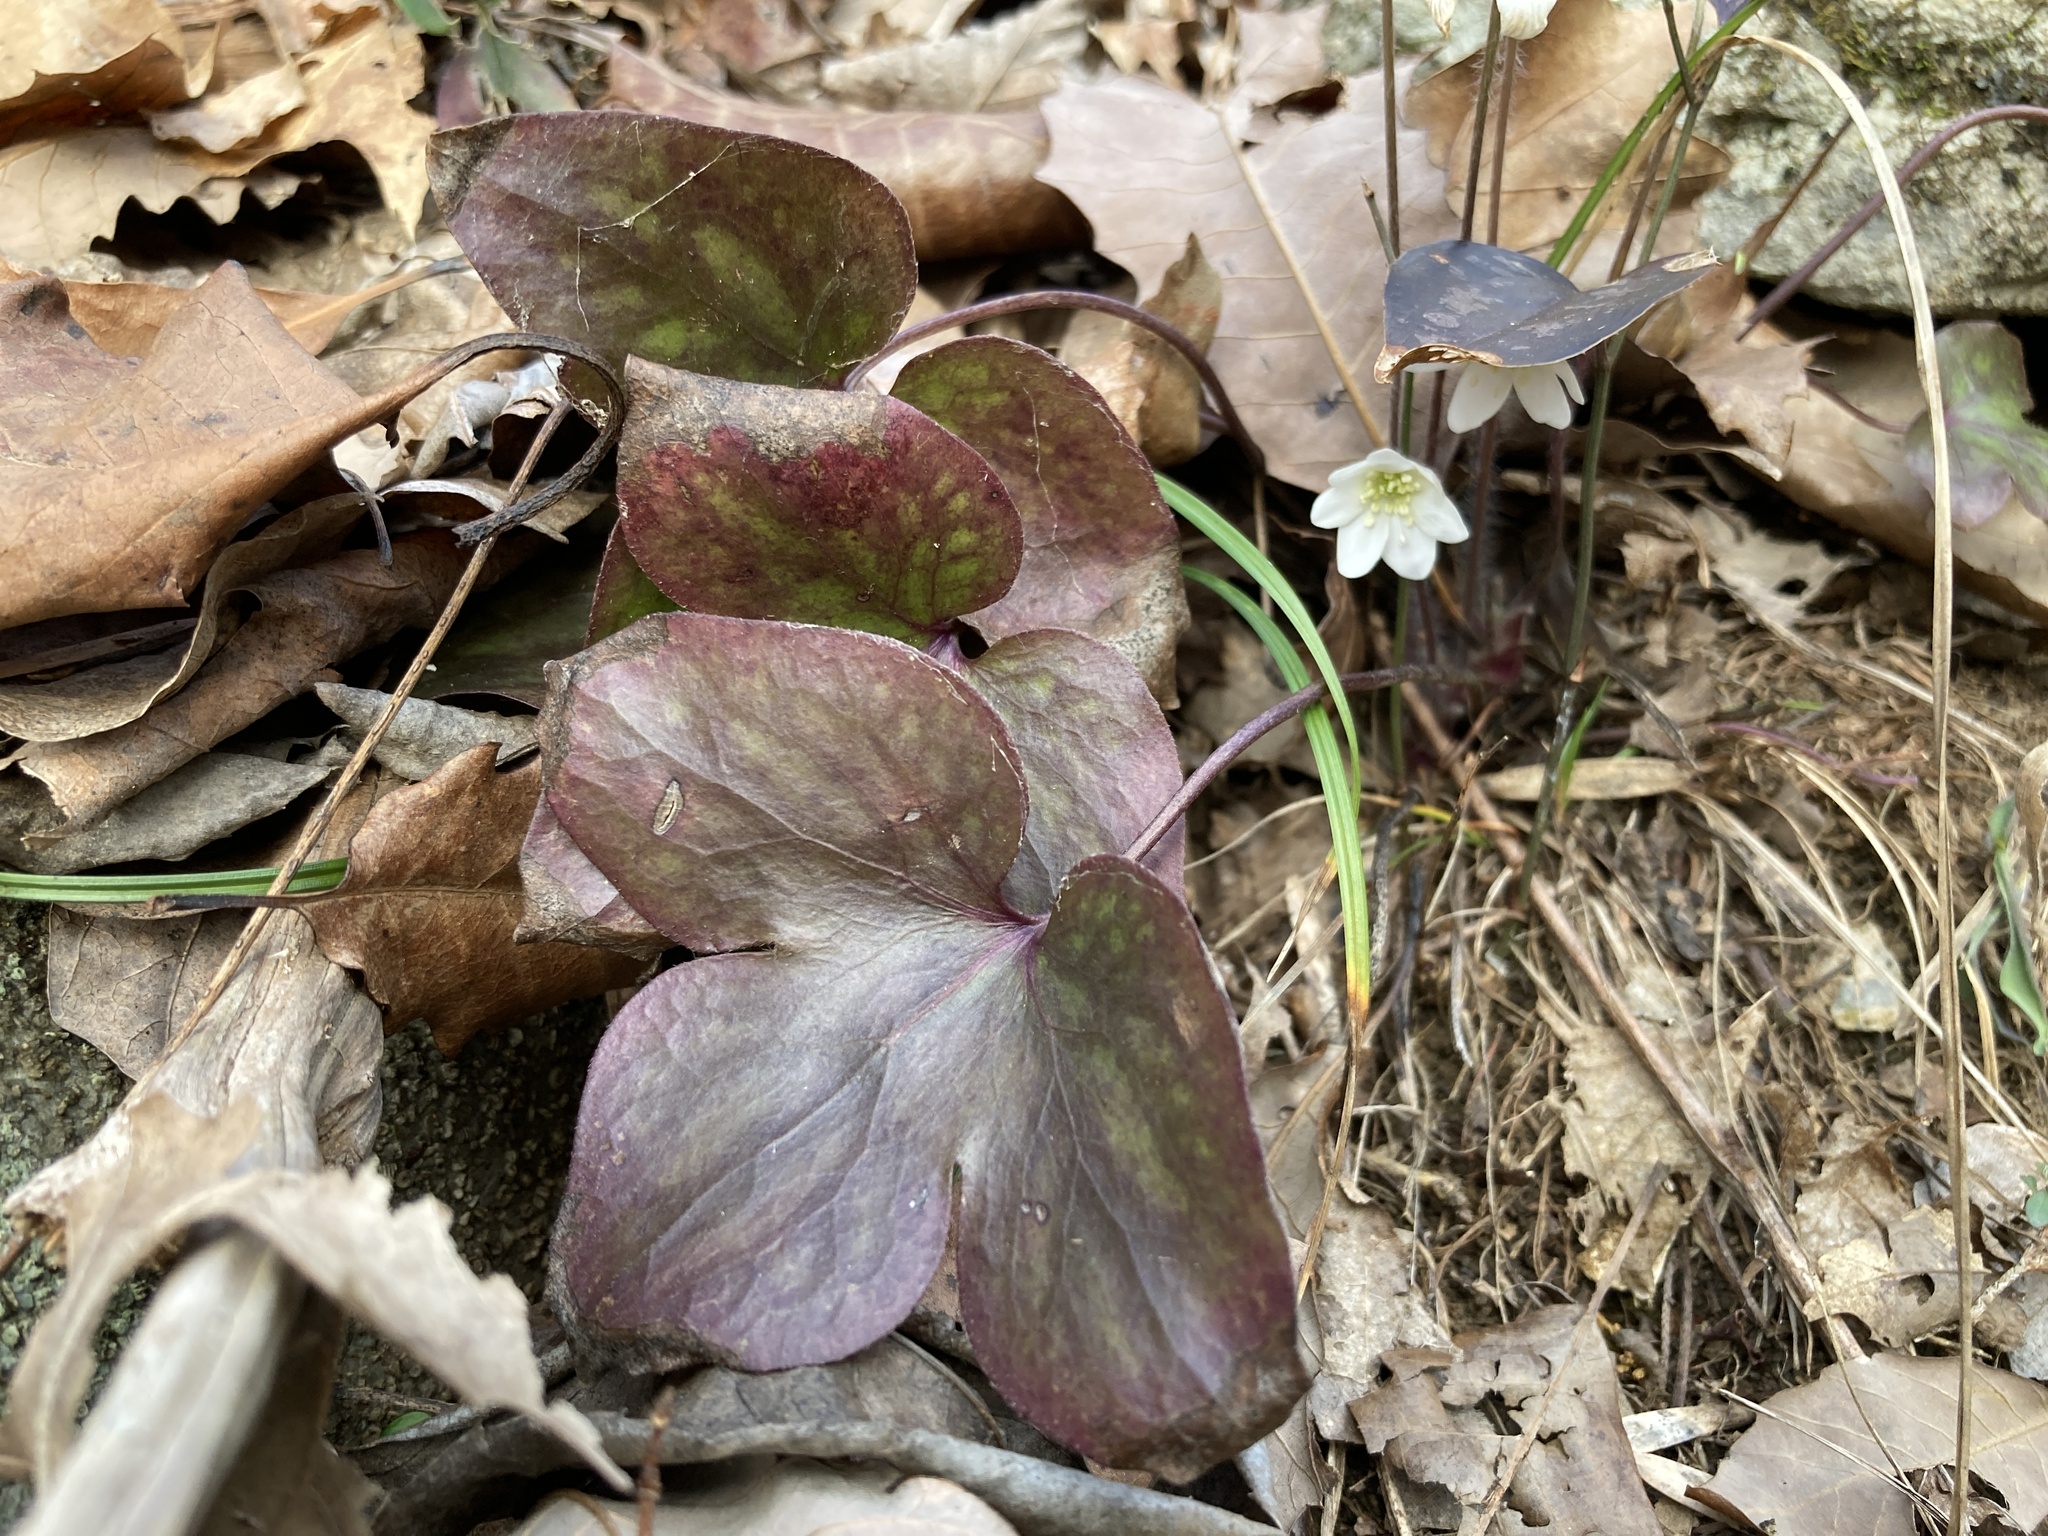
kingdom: Plantae
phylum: Tracheophyta
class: Magnoliopsida
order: Ranunculales
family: Ranunculaceae
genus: Hepatica
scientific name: Hepatica acutiloba
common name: Sharp-lobed hepatica
